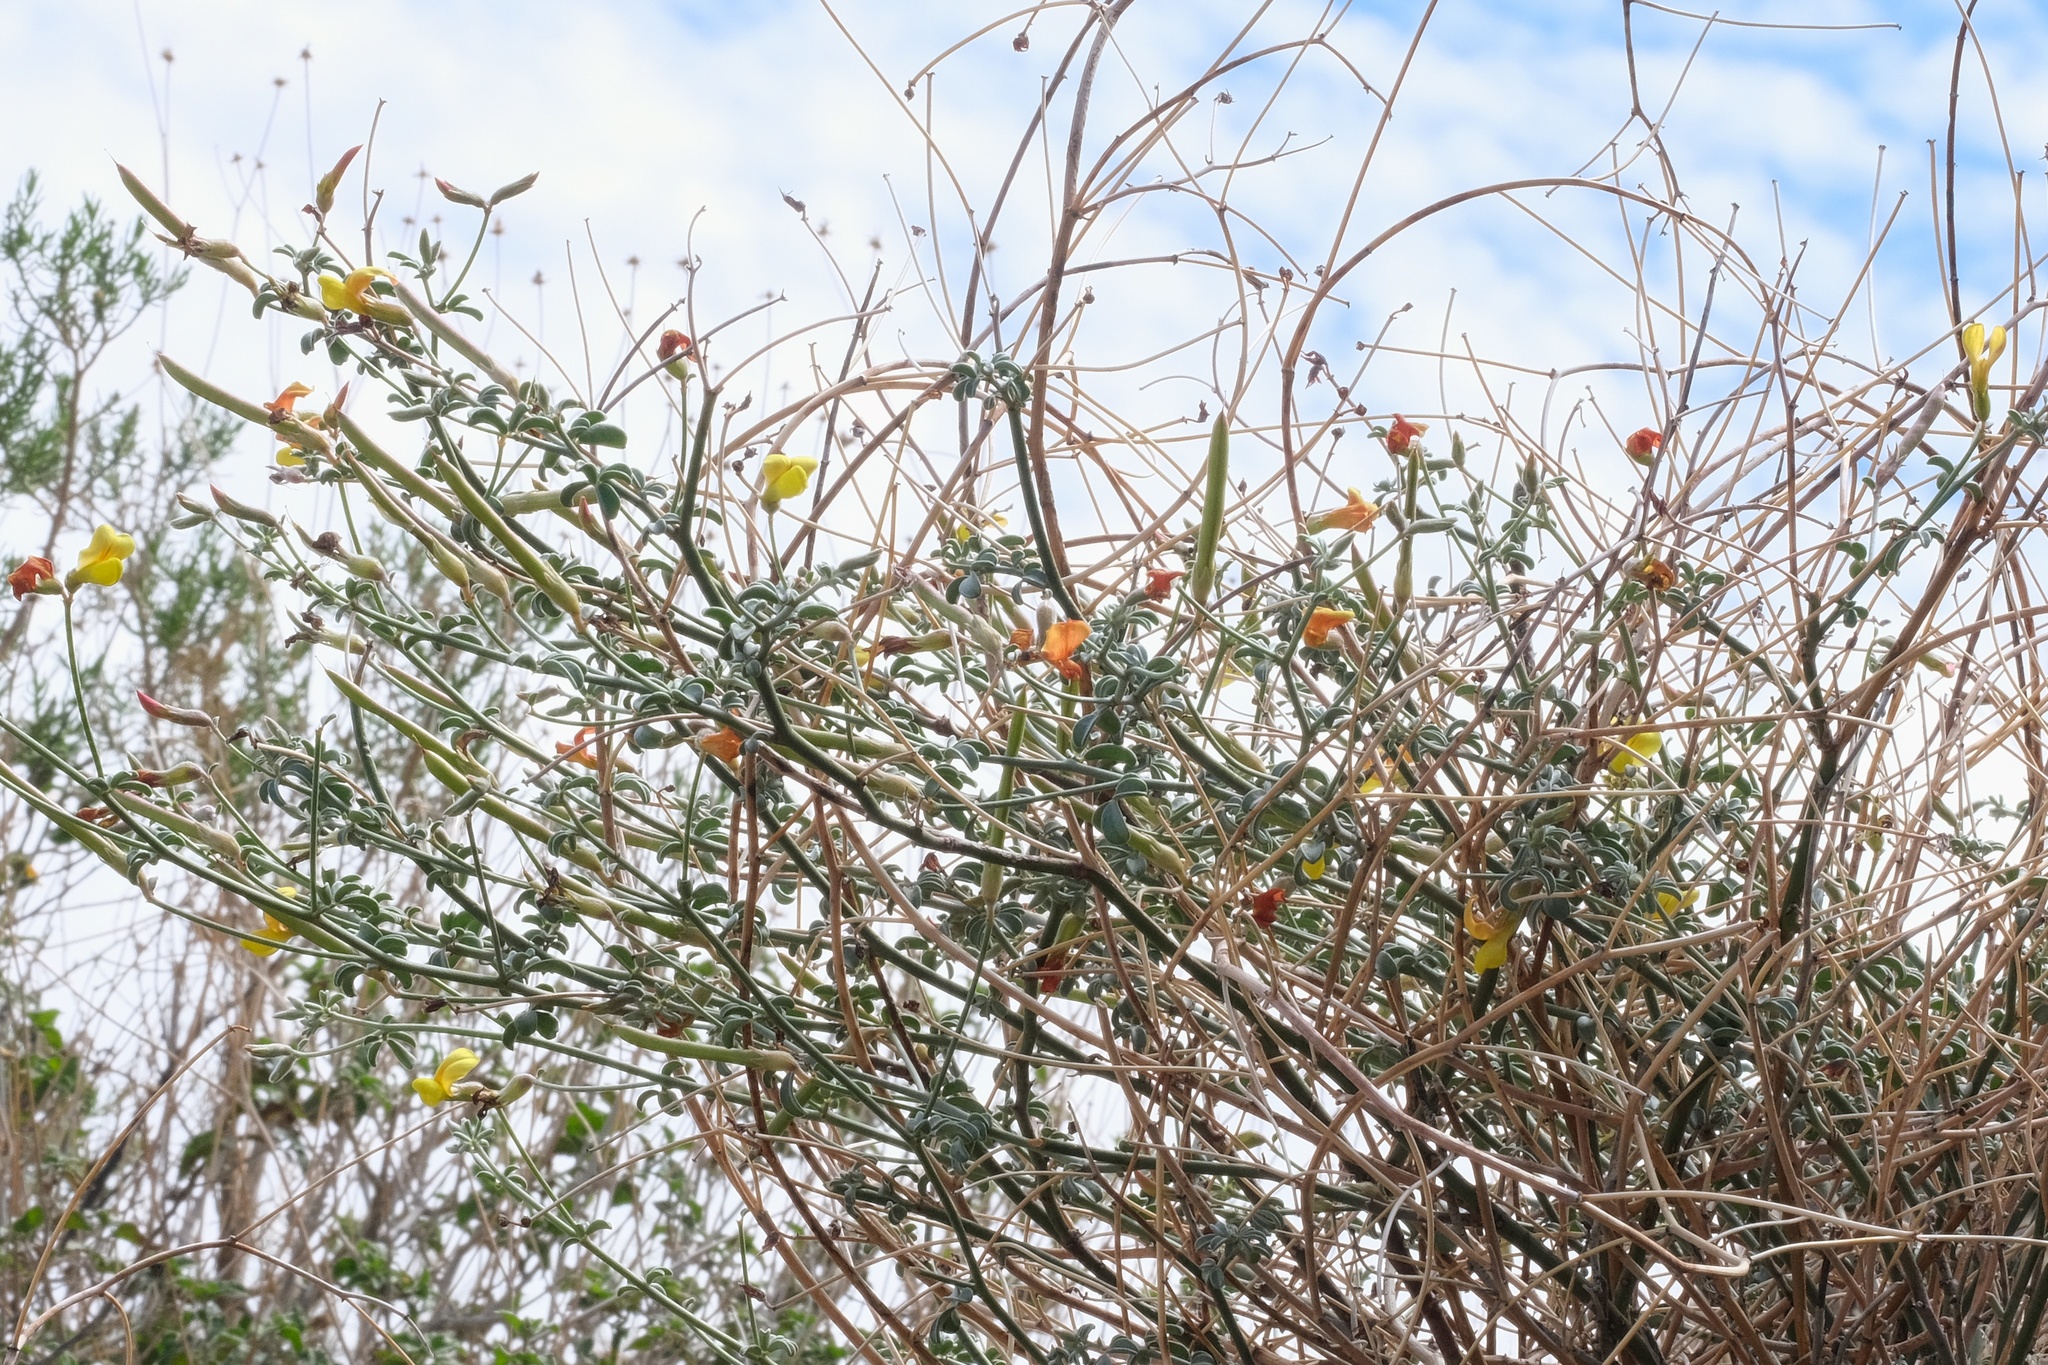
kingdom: Plantae
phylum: Tracheophyta
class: Magnoliopsida
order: Fabales
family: Fabaceae
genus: Acmispon
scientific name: Acmispon rigidus
